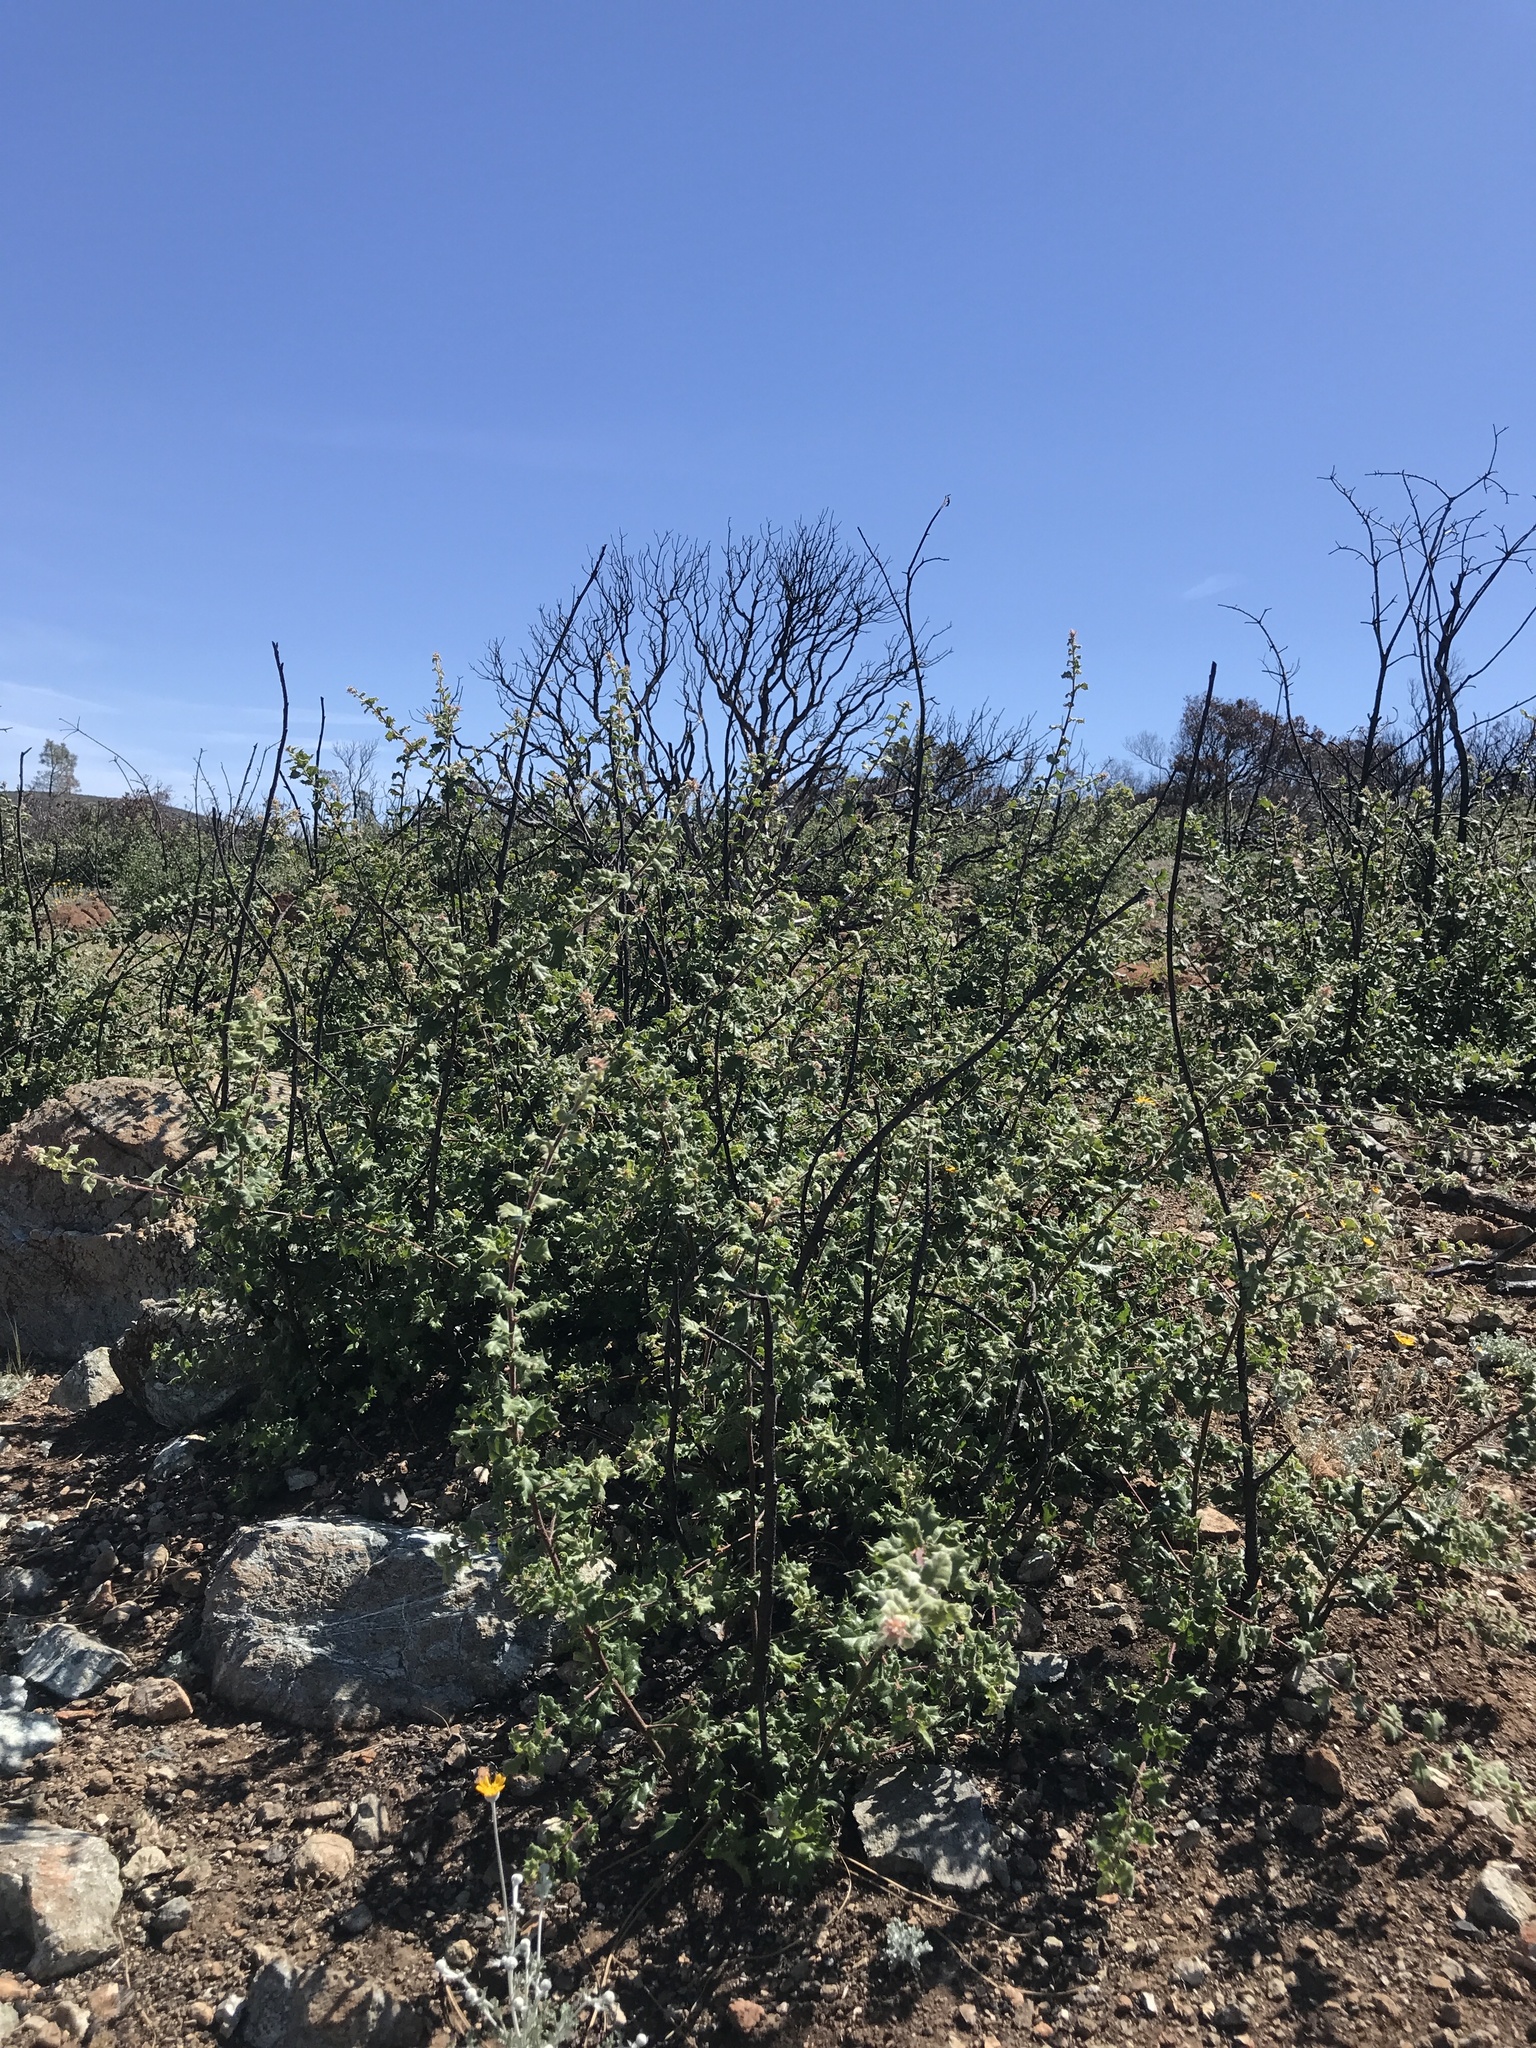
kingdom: Plantae
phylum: Tracheophyta
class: Magnoliopsida
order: Fagales
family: Fagaceae
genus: Quercus
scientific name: Quercus durata
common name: Leather oak
